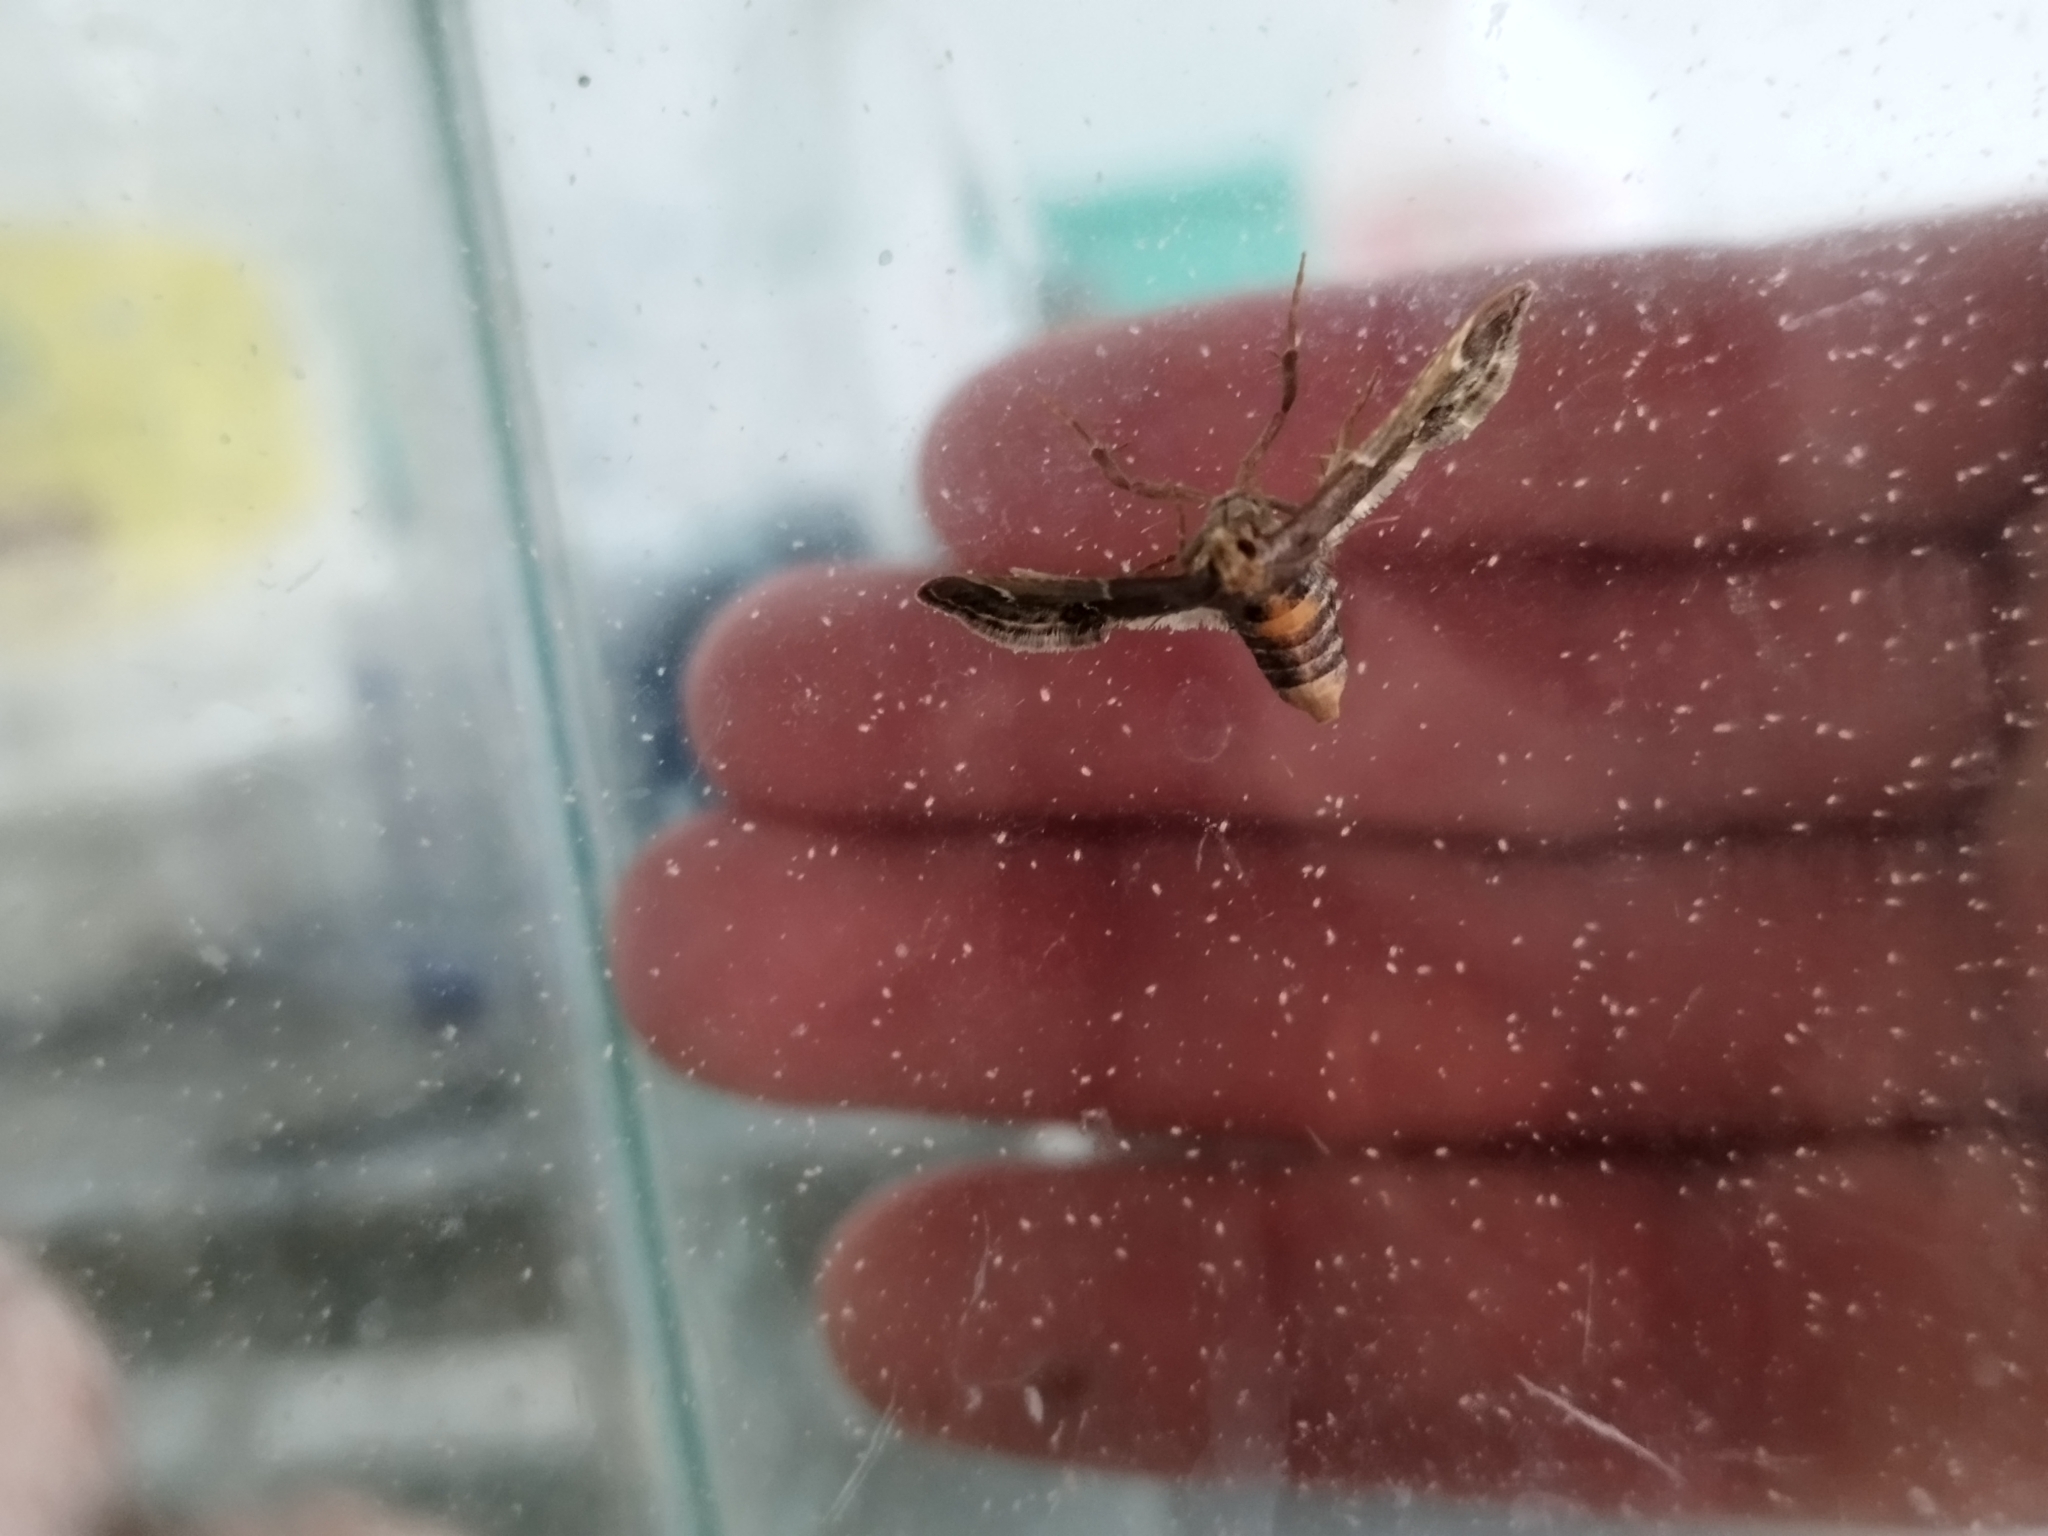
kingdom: Animalia
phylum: Arthropoda
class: Insecta
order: Lepidoptera
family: Pyralidae
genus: Pyralis
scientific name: Pyralis farinalis
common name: Meal moth
